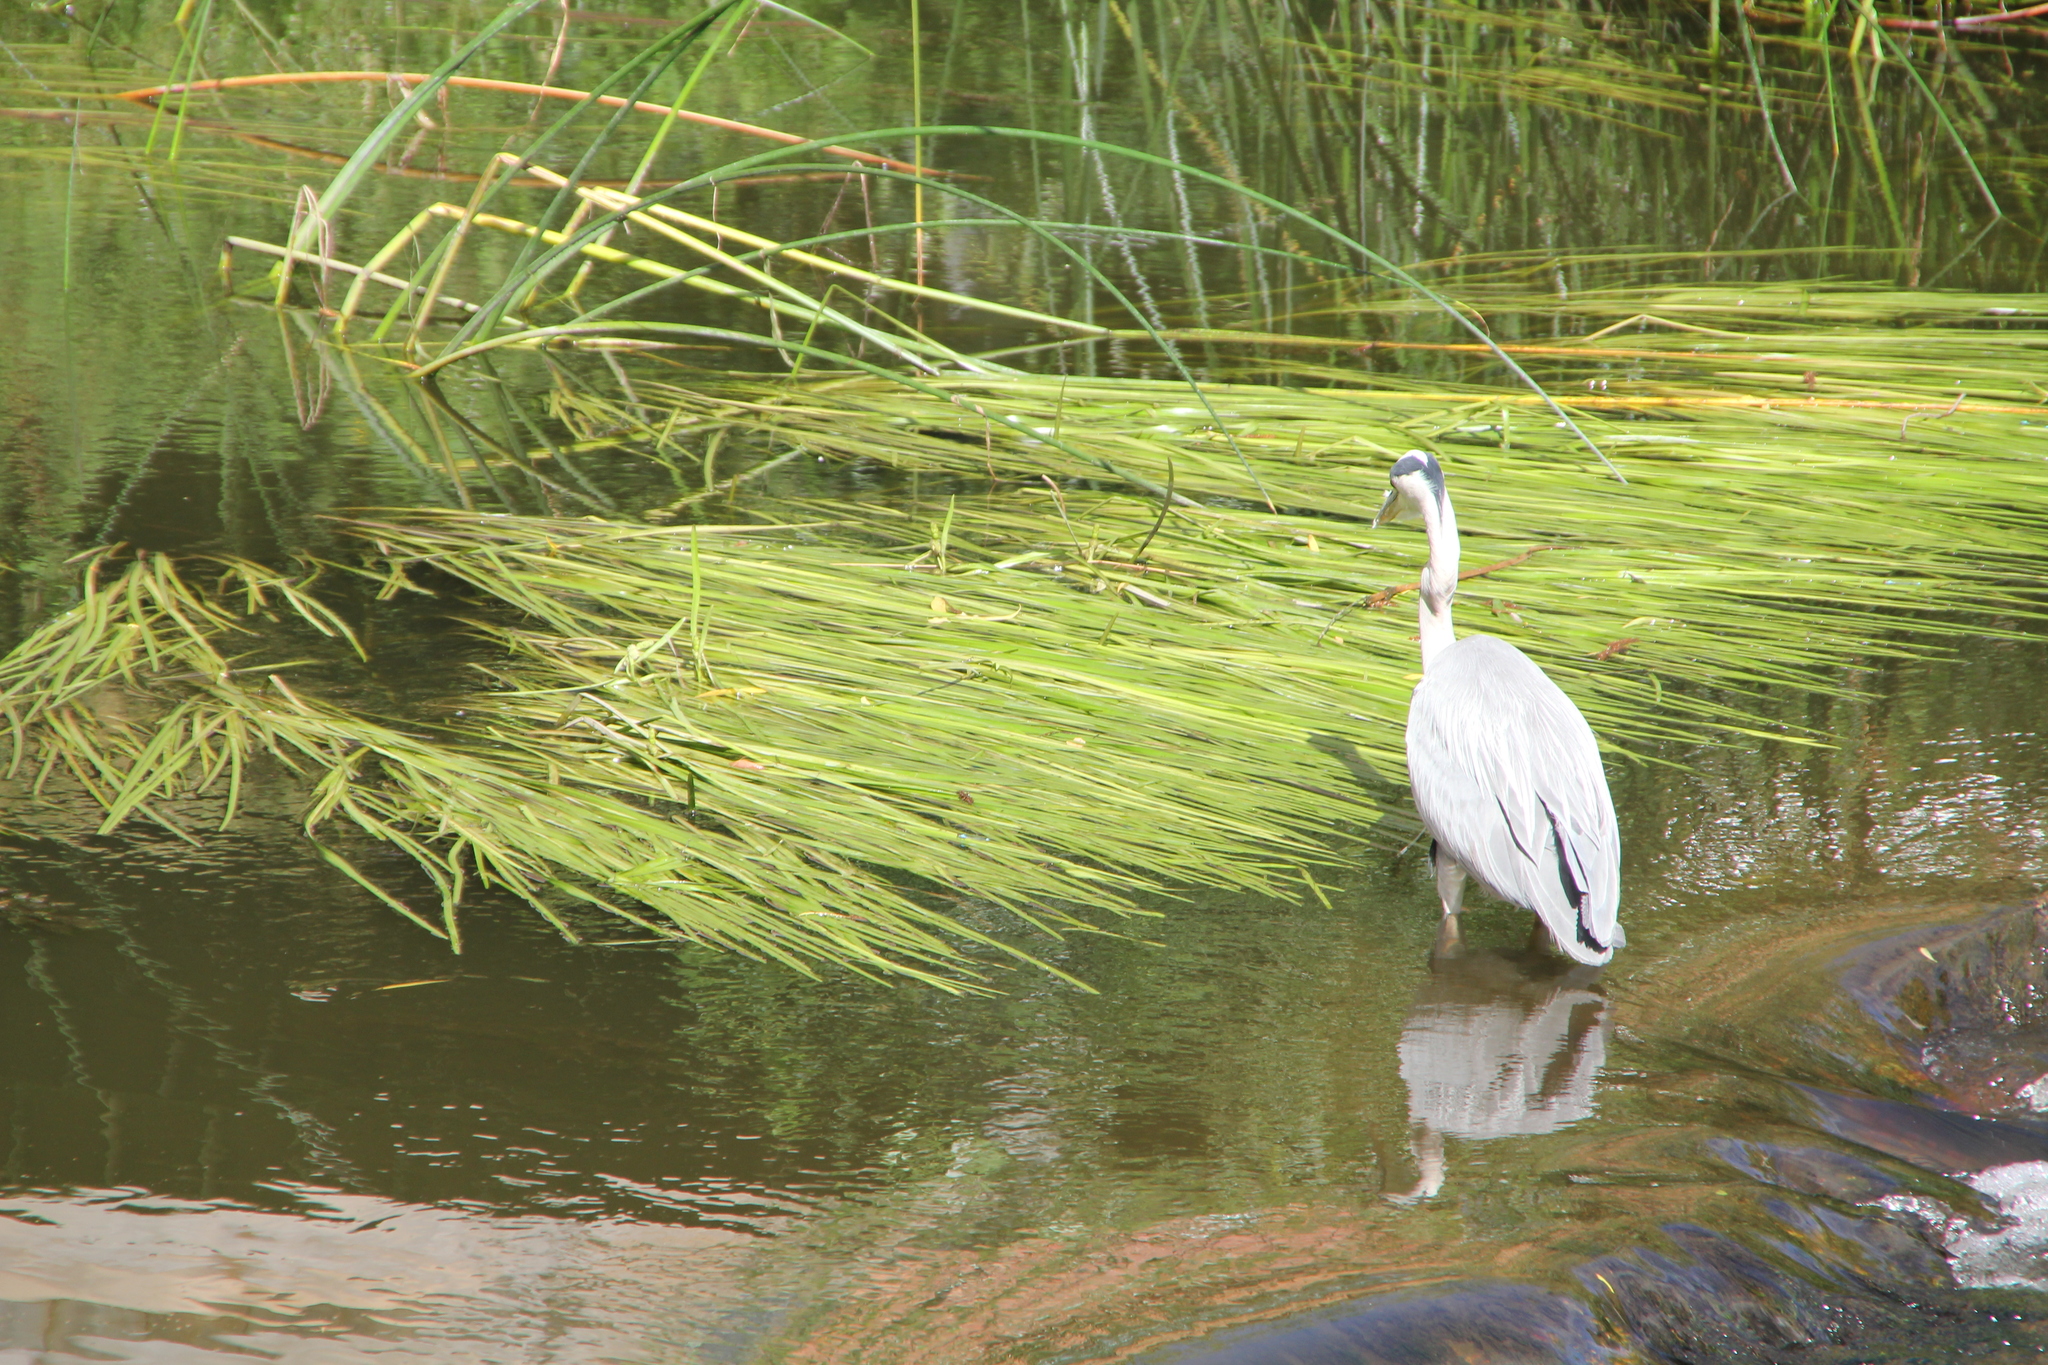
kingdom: Animalia
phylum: Chordata
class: Aves
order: Pelecaniformes
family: Ardeidae
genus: Ardea
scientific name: Ardea cinerea
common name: Grey heron
